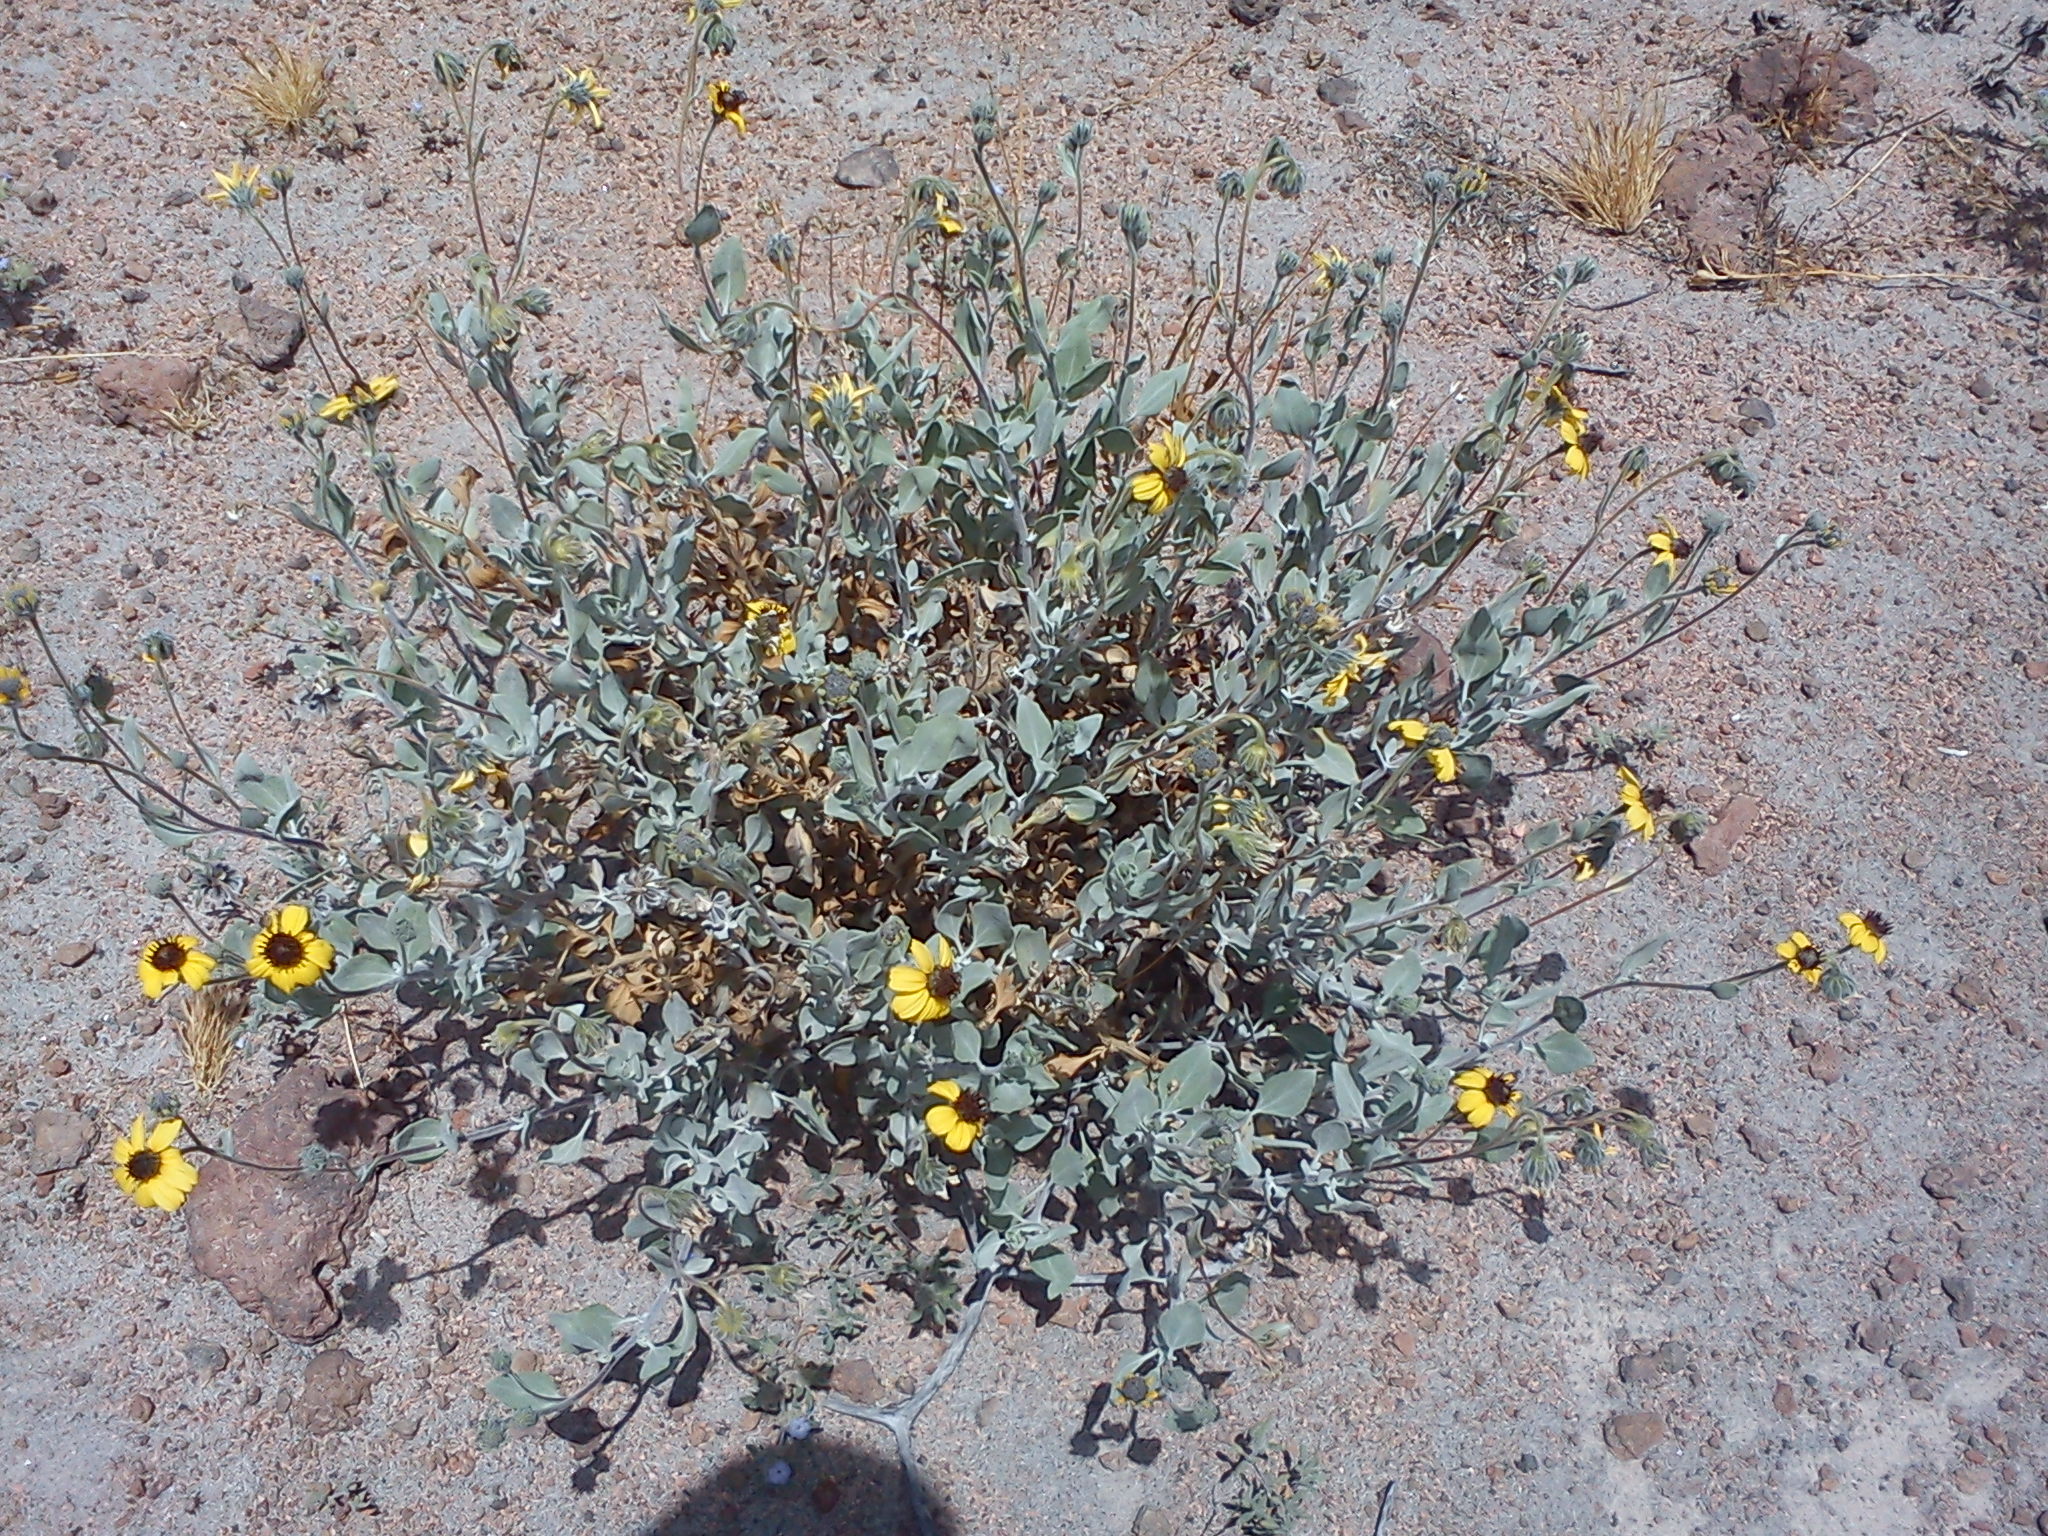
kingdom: Plantae
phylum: Tracheophyta
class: Magnoliopsida
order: Asterales
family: Asteraceae
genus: Encelia
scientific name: Encelia canescens
